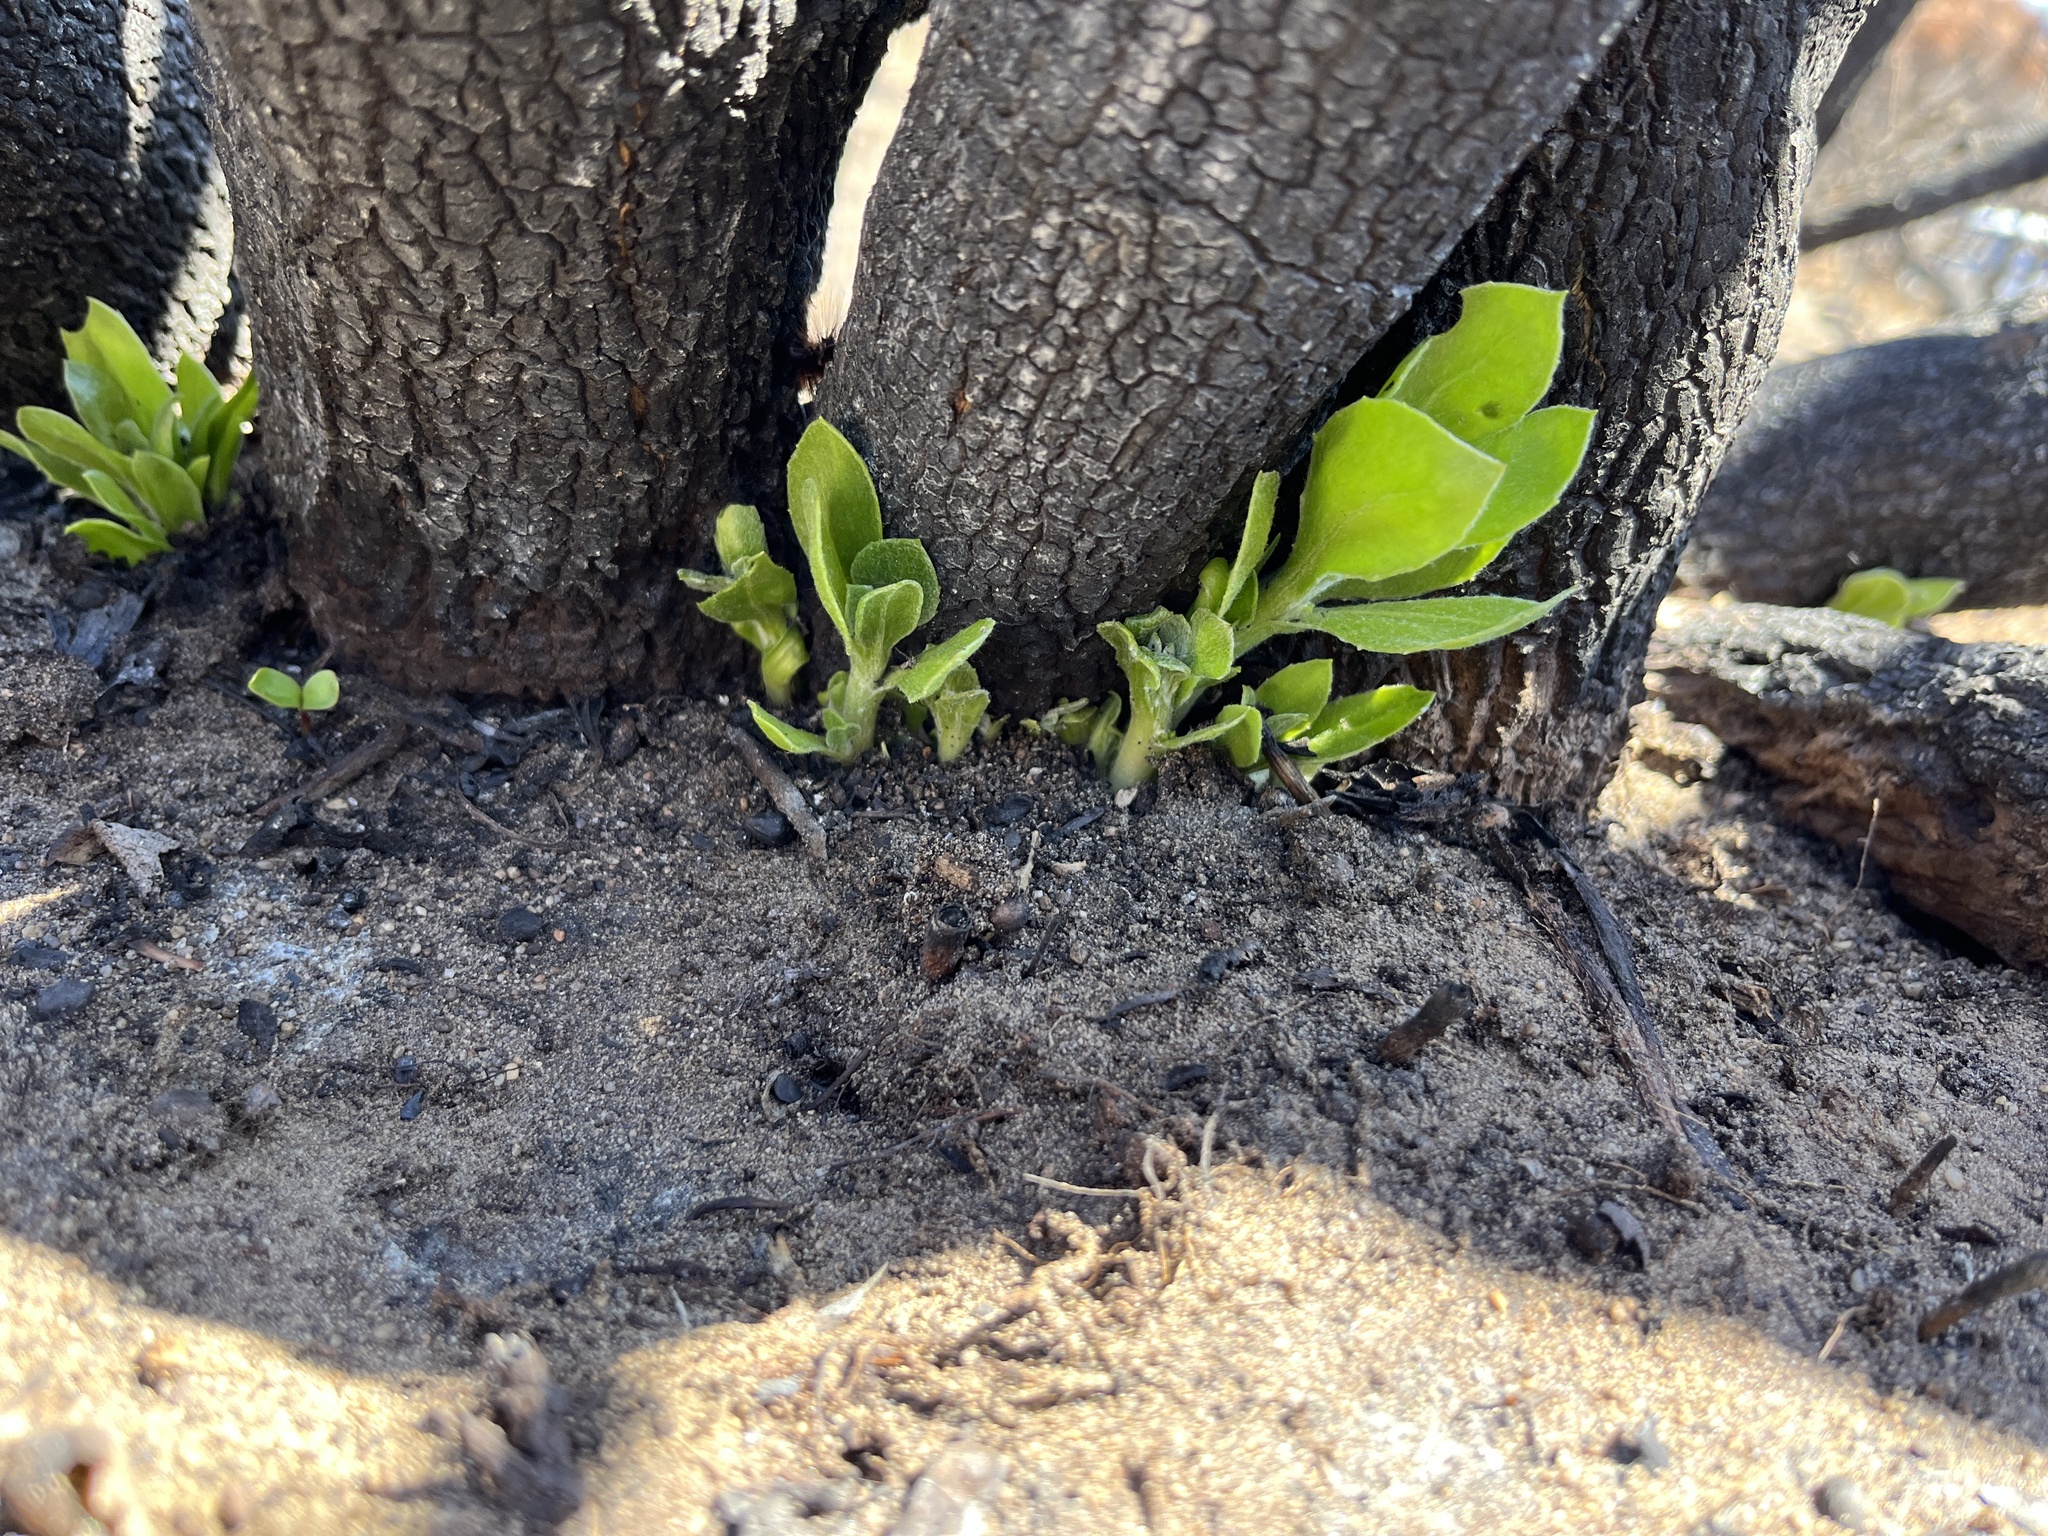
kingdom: Plantae
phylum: Tracheophyta
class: Magnoliopsida
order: Asterales
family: Asteraceae
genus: Osteospermum
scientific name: Osteospermum moniliferum
